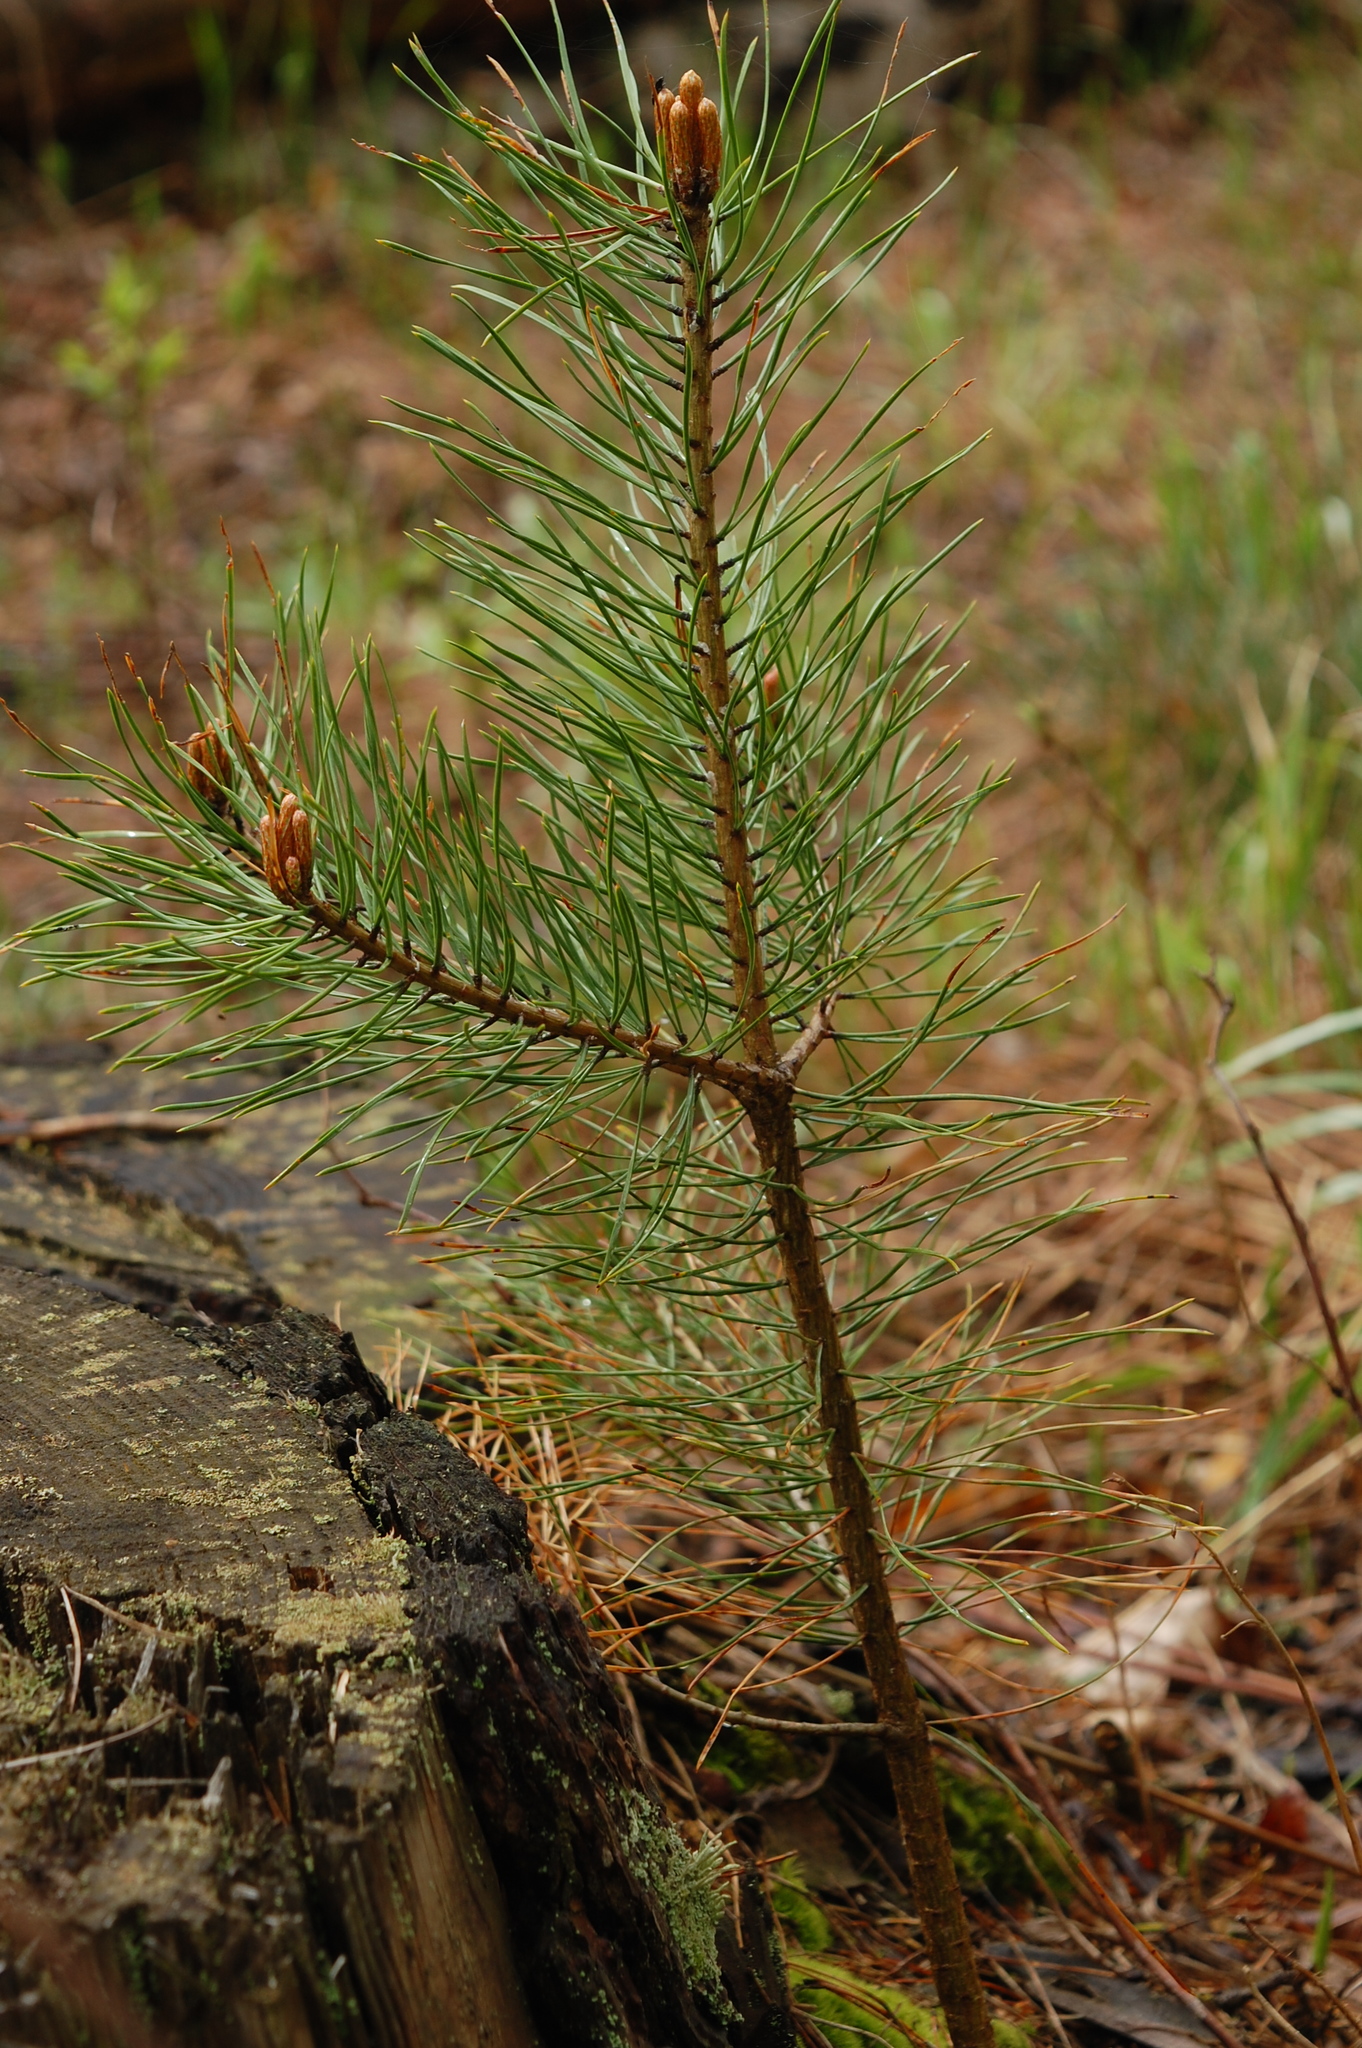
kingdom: Plantae
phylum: Tracheophyta
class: Pinopsida
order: Pinales
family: Pinaceae
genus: Pinus
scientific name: Pinus sylvestris
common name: Scots pine
